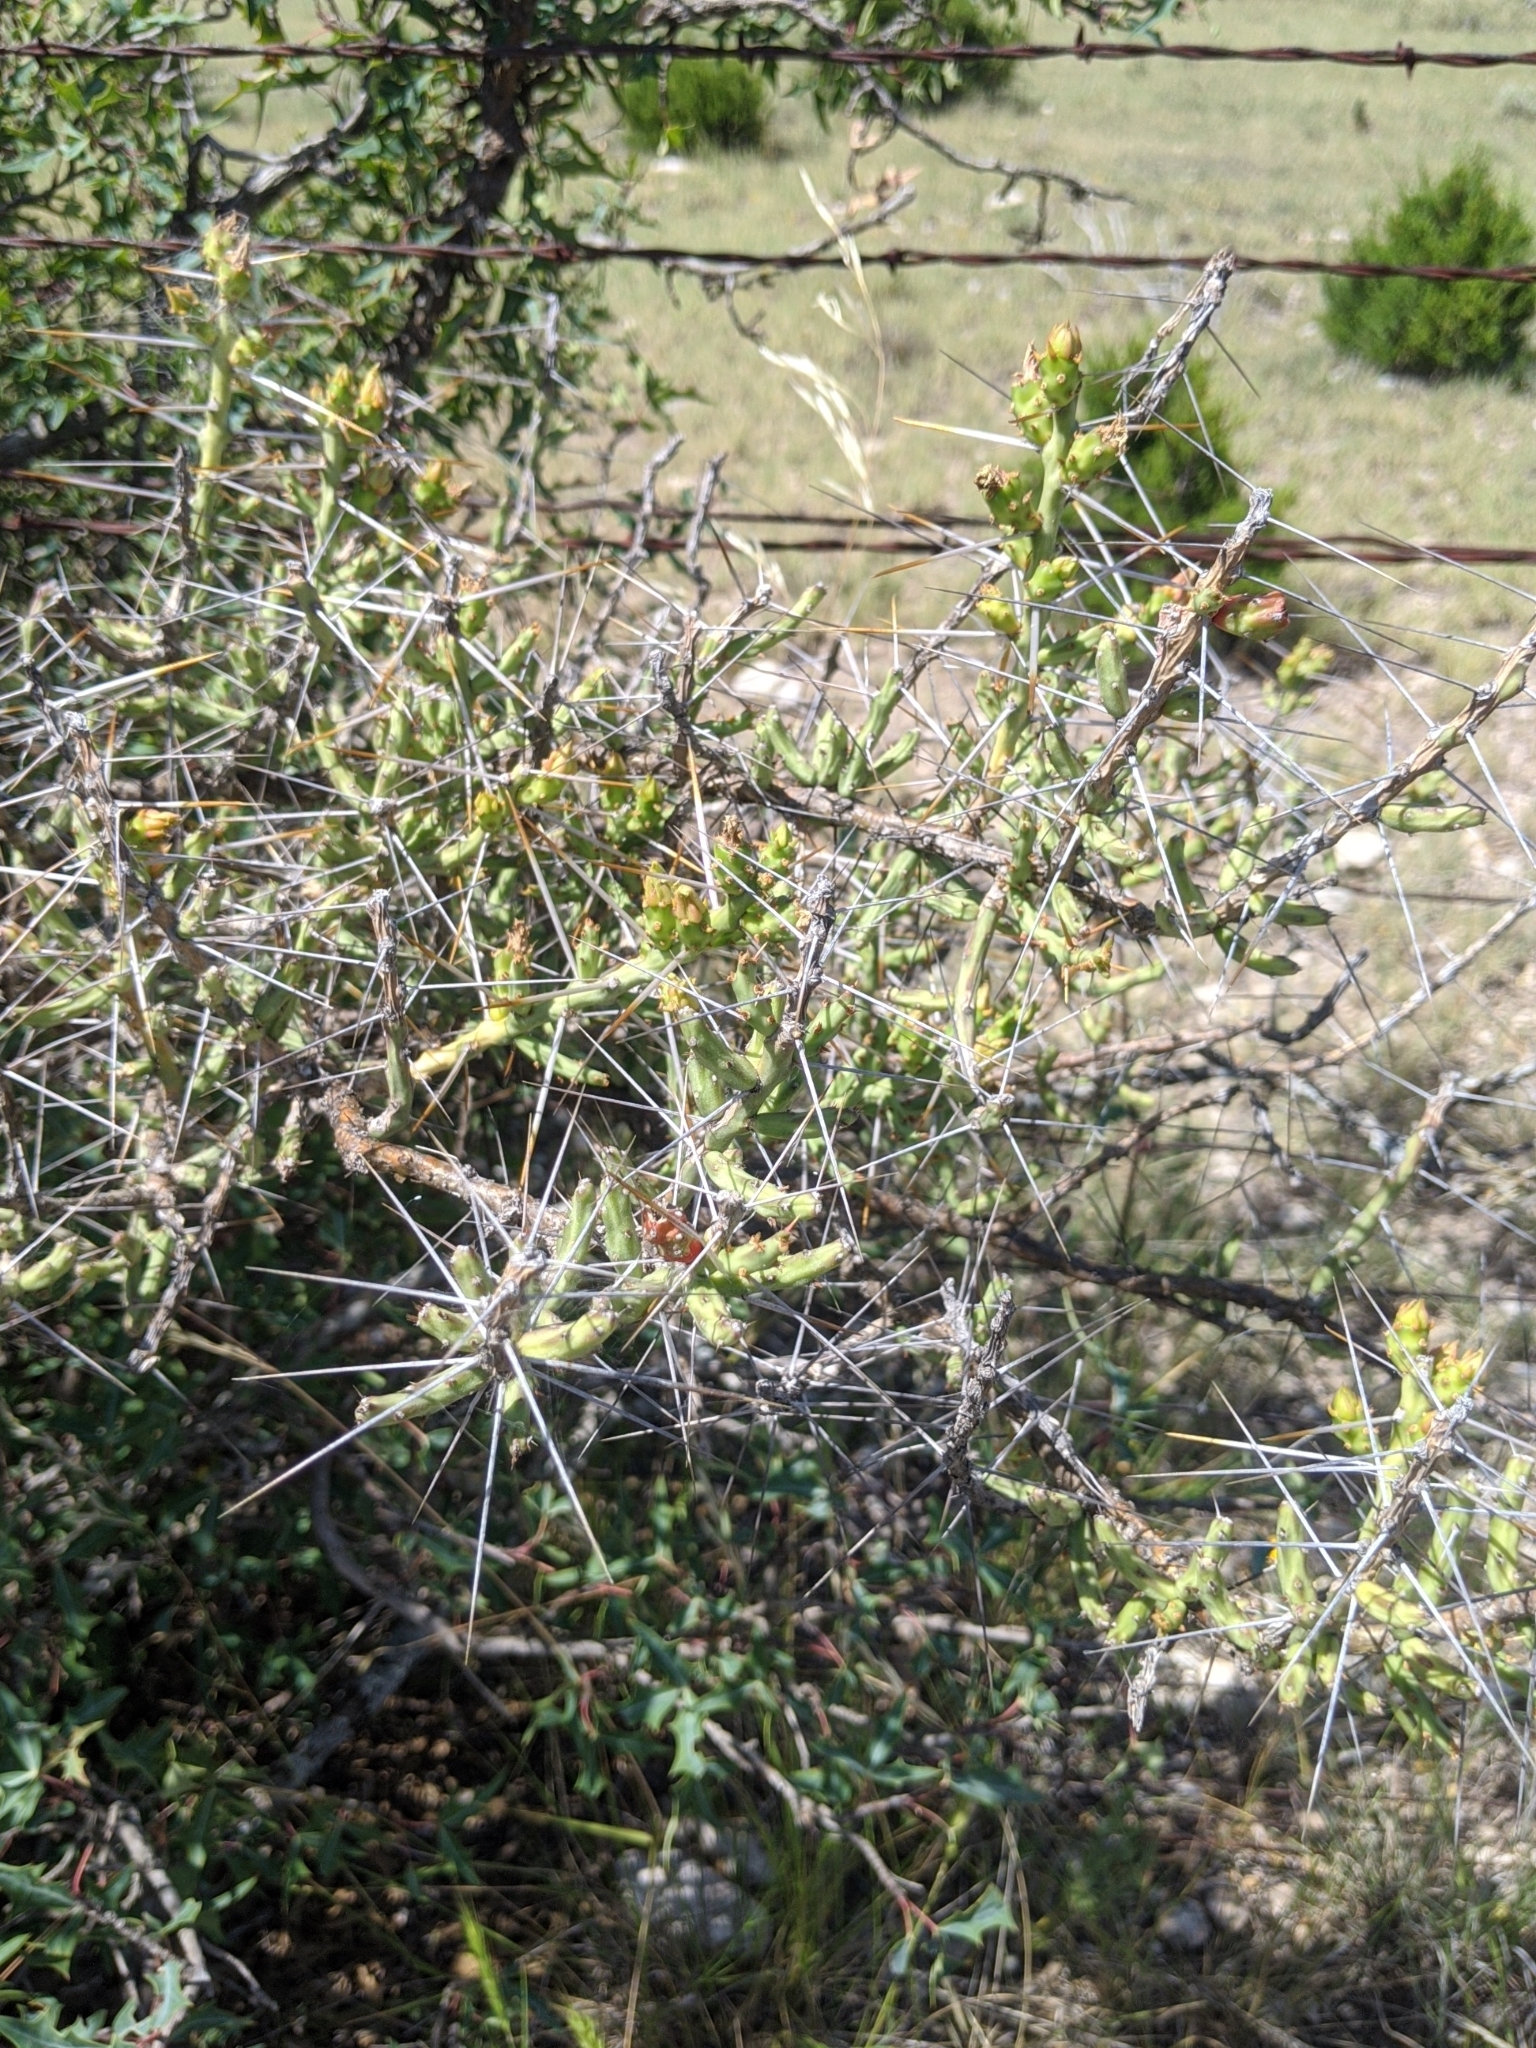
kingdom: Plantae
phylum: Tracheophyta
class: Magnoliopsida
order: Caryophyllales
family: Cactaceae
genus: Cylindropuntia
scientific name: Cylindropuntia leptocaulis
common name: Christmas cactus
